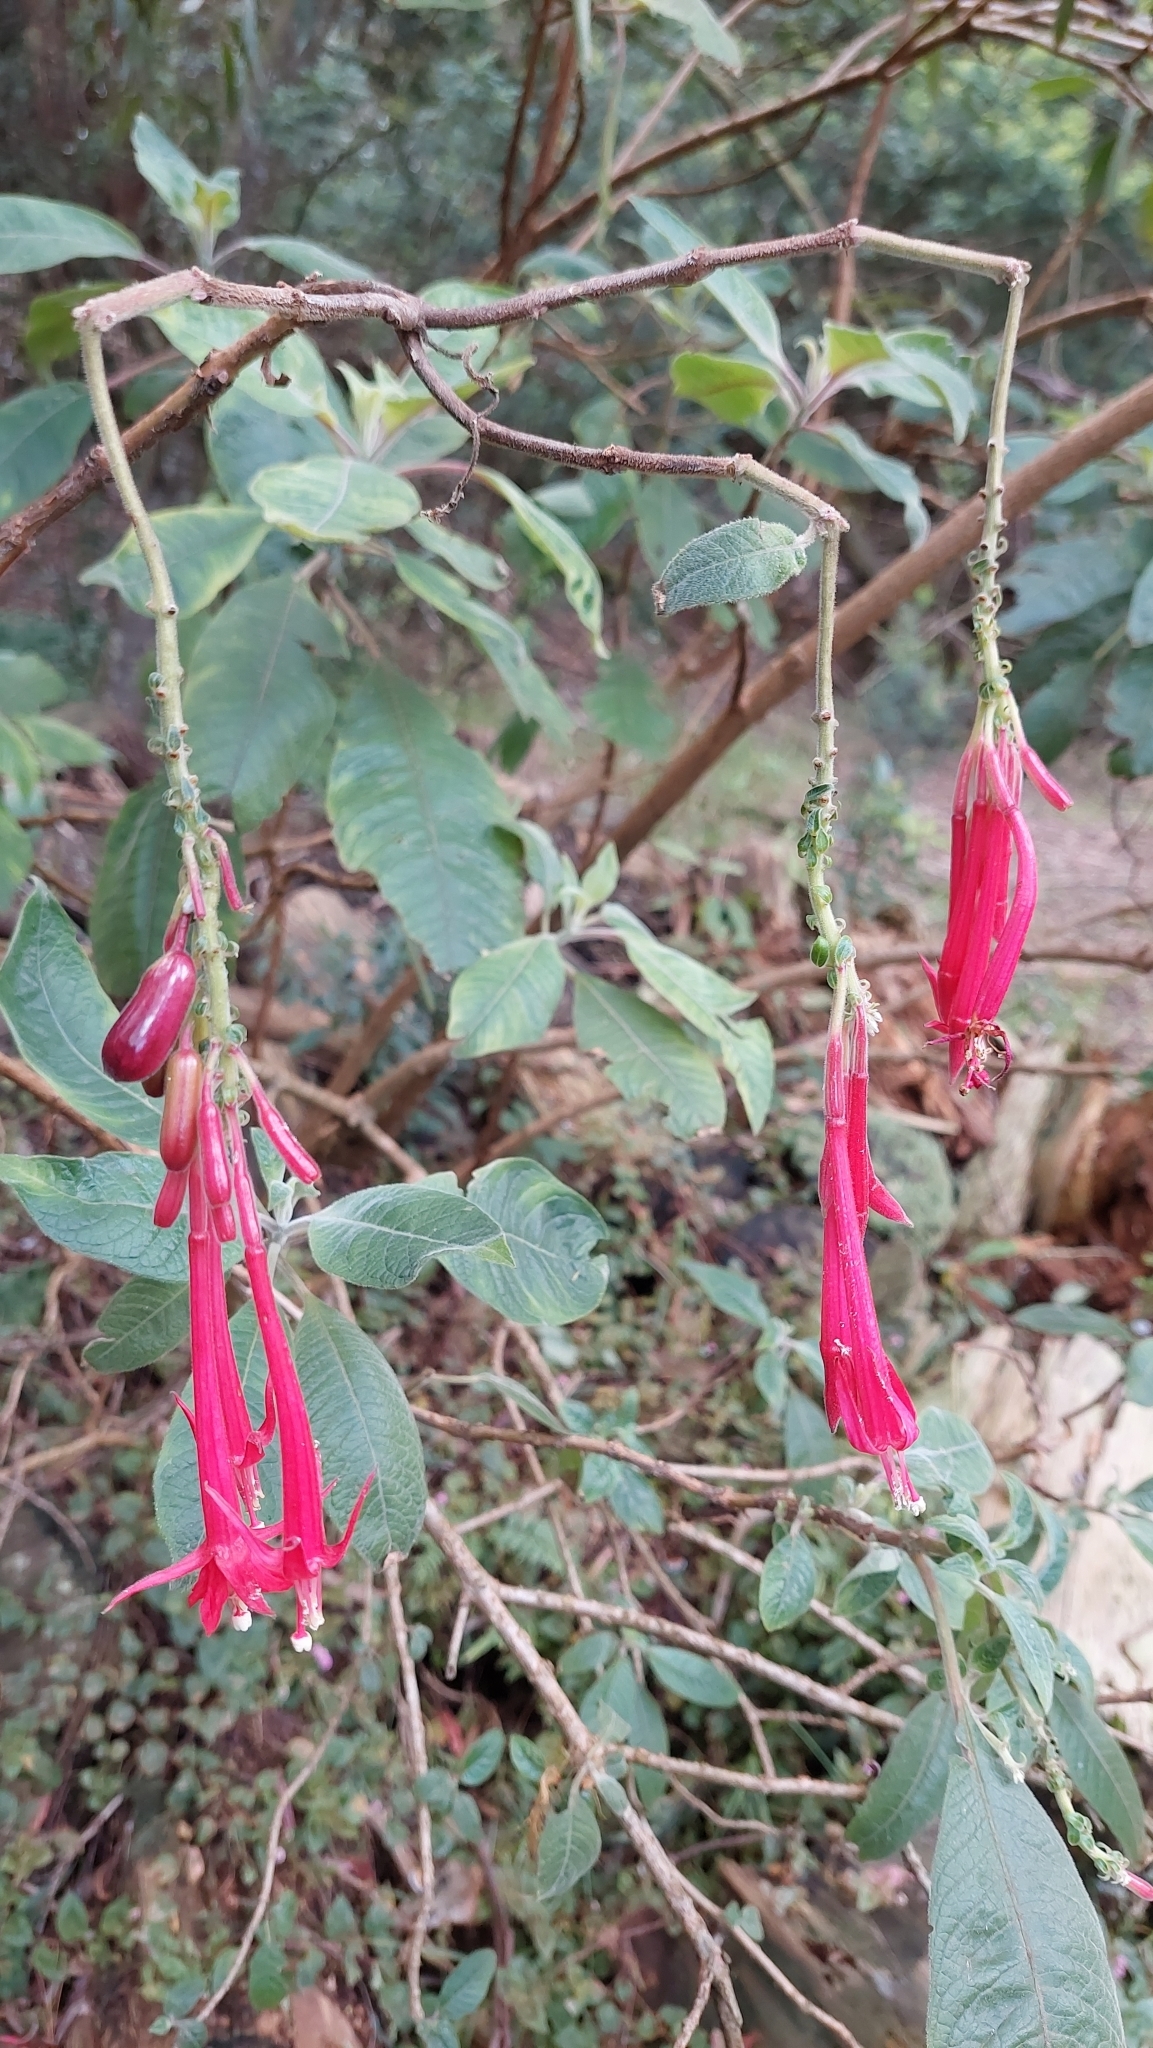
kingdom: Plantae
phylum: Tracheophyta
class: Magnoliopsida
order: Myrtales
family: Onagraceae
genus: Fuchsia
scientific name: Fuchsia boliviana
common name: Bolivian fuchsia
